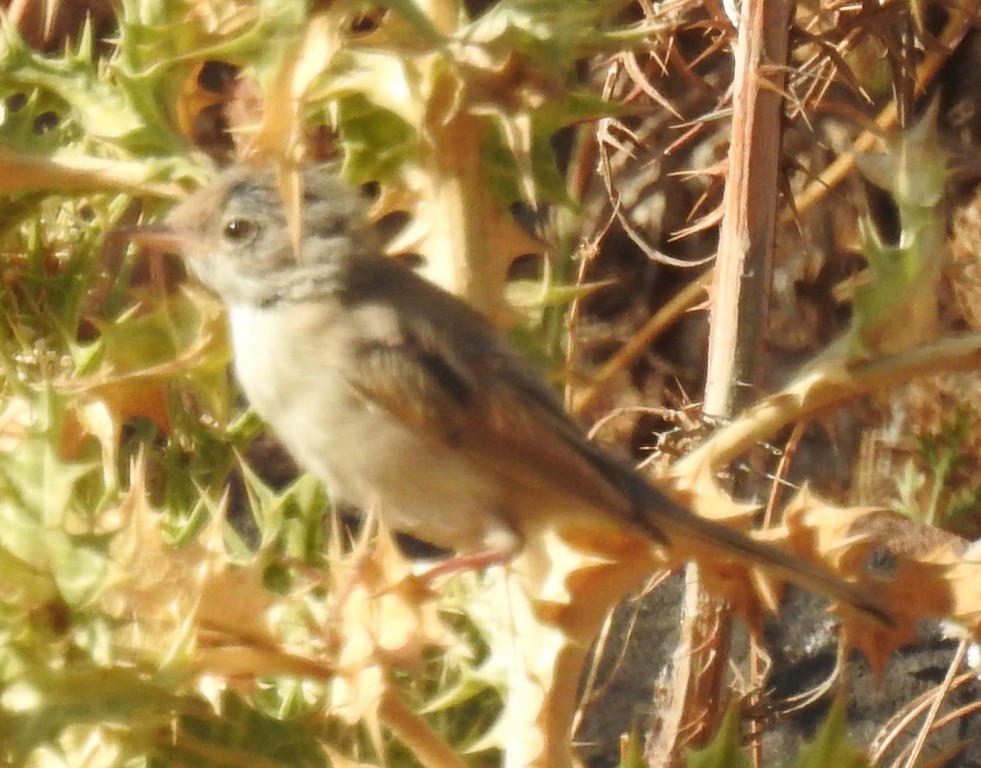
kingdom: Animalia
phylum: Chordata
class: Aves
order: Passeriformes
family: Sylviidae
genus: Sylvia
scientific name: Sylvia conspicillata
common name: Spectacled warbler
